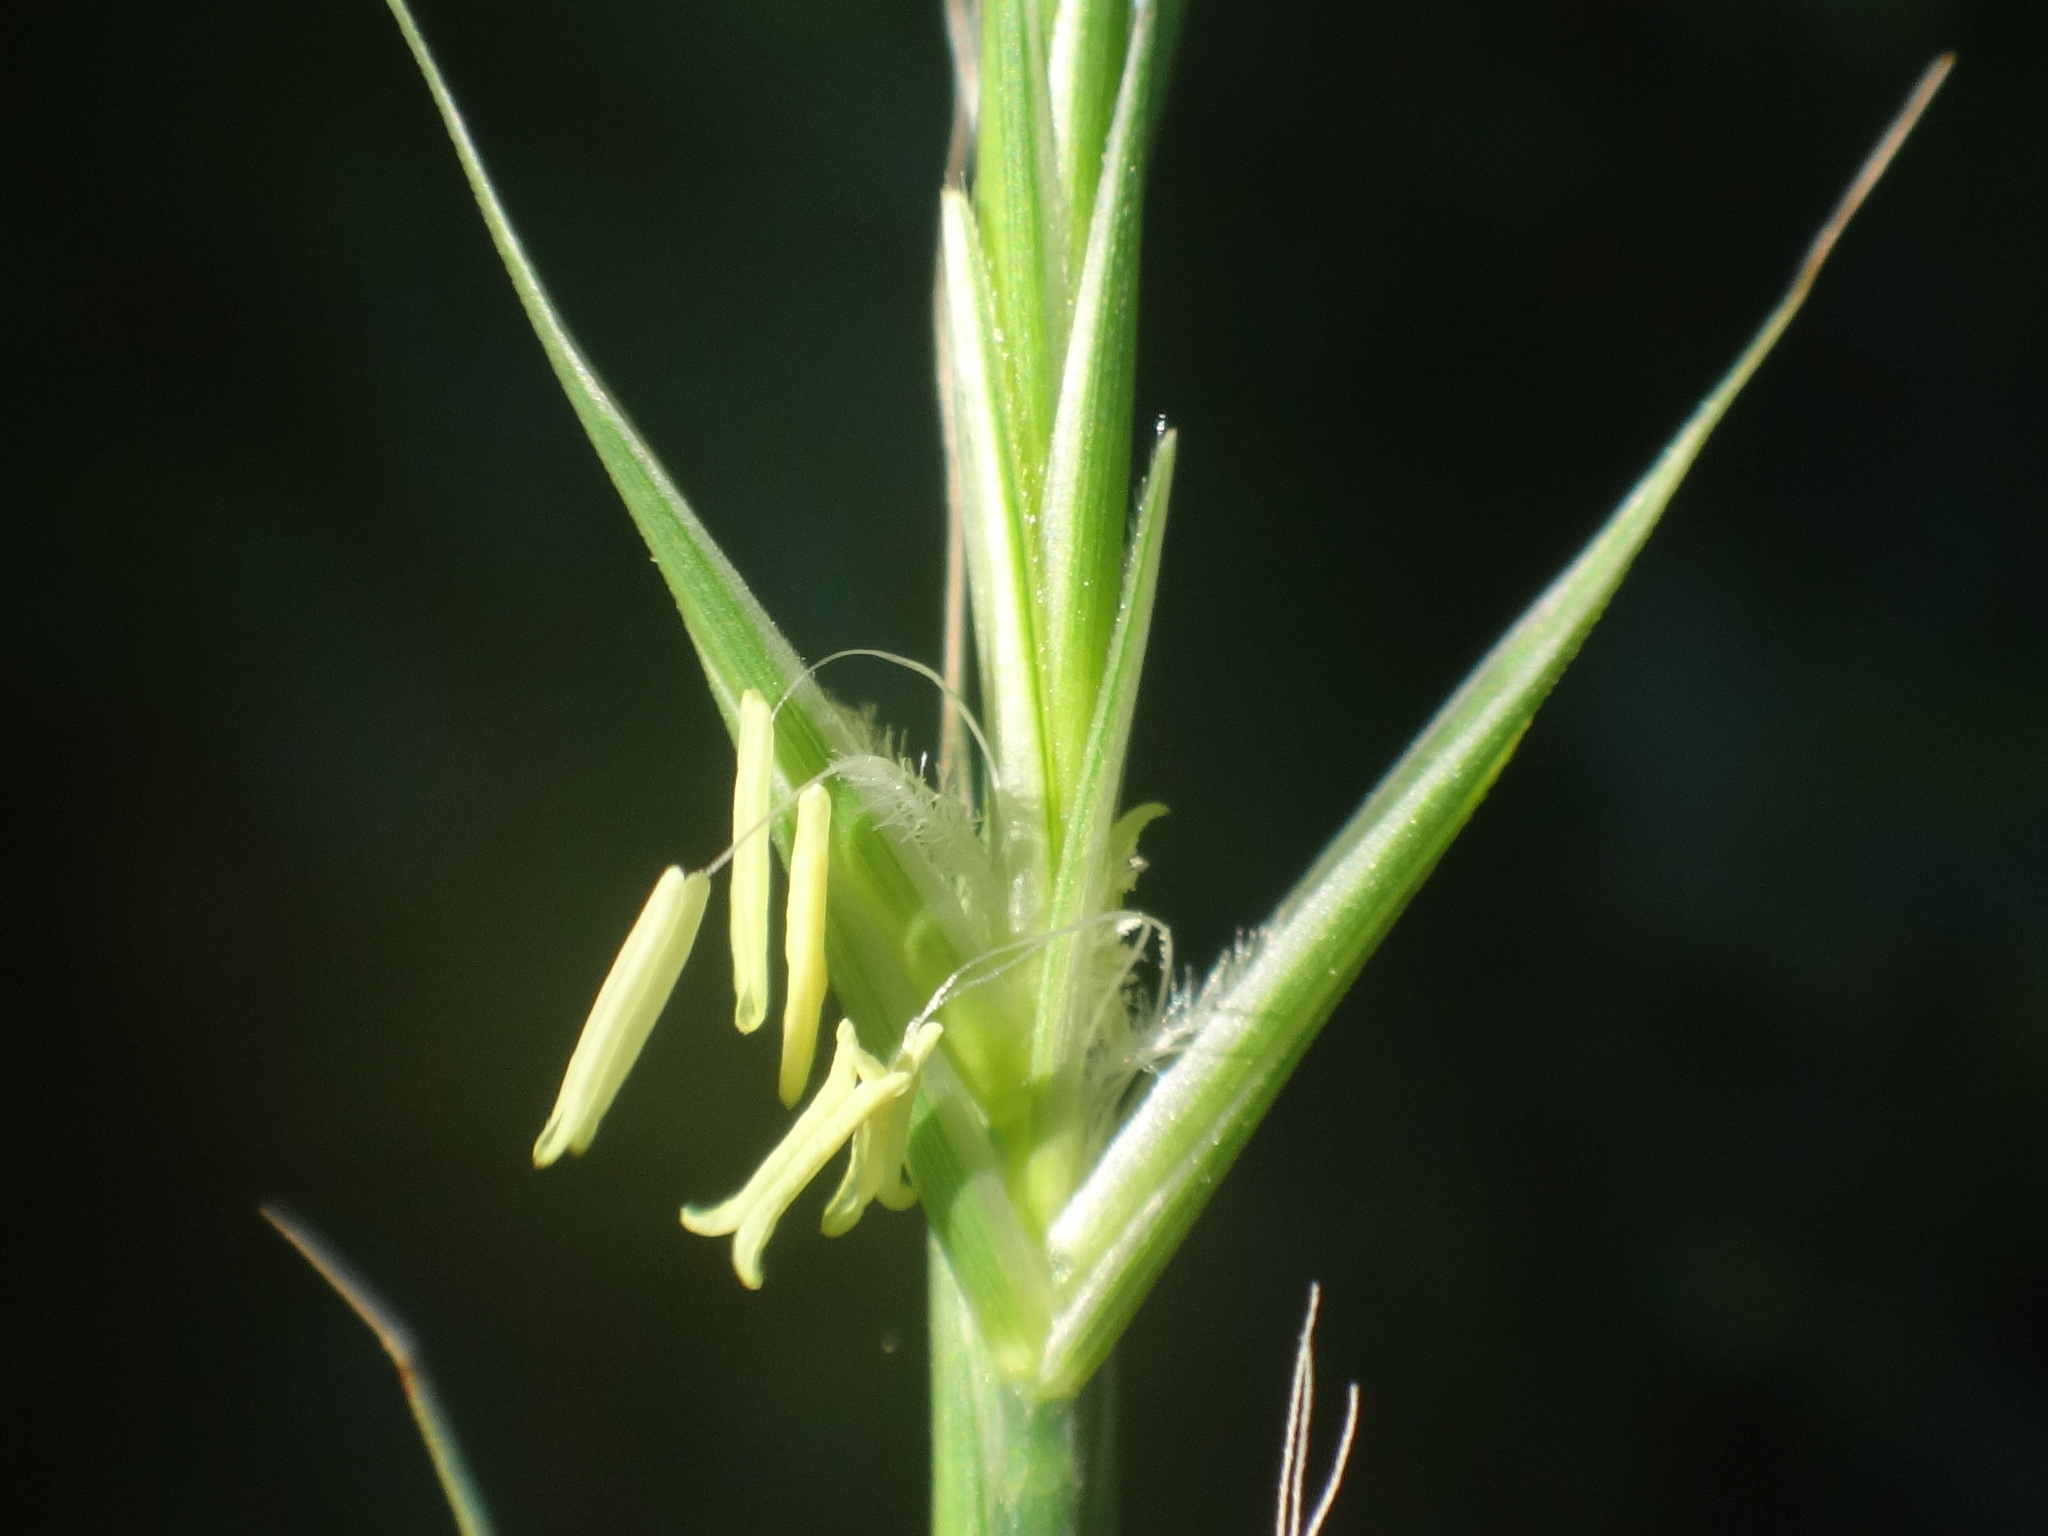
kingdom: Plantae
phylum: Tracheophyta
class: Liliopsida
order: Poales
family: Poaceae
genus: Brachypodium
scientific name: Brachypodium sylvaticum
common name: False-brome
